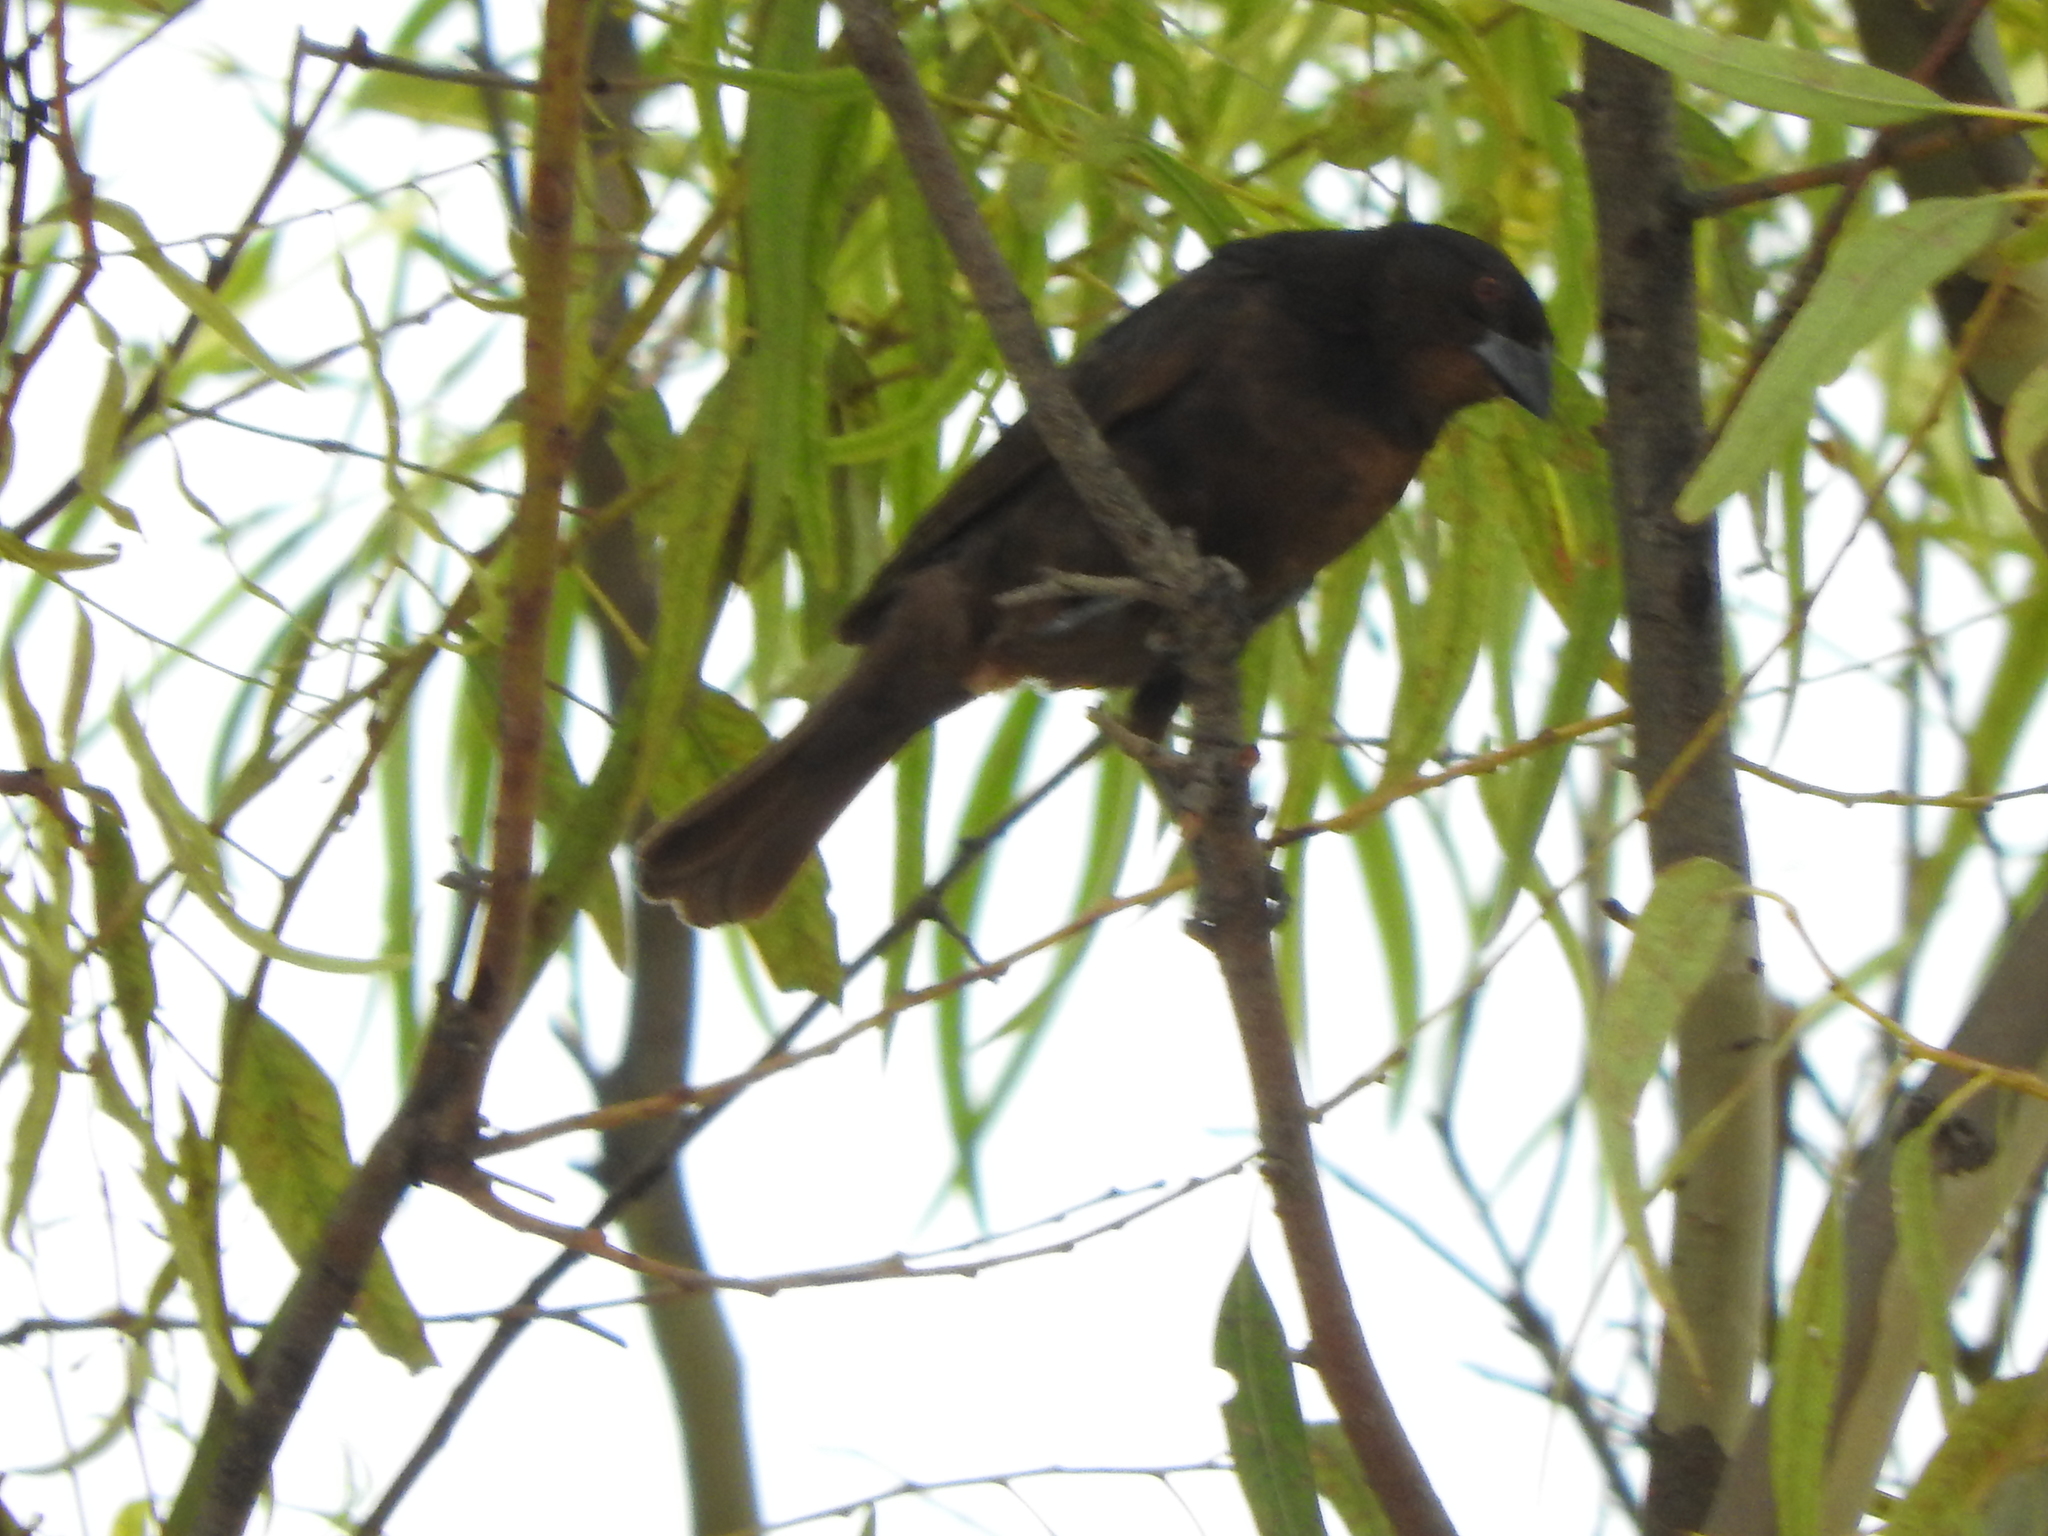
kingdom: Animalia
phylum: Chordata
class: Aves
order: Passeriformes
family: Icteridae
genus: Molothrus
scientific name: Molothrus aeneus
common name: Bronzed cowbird
